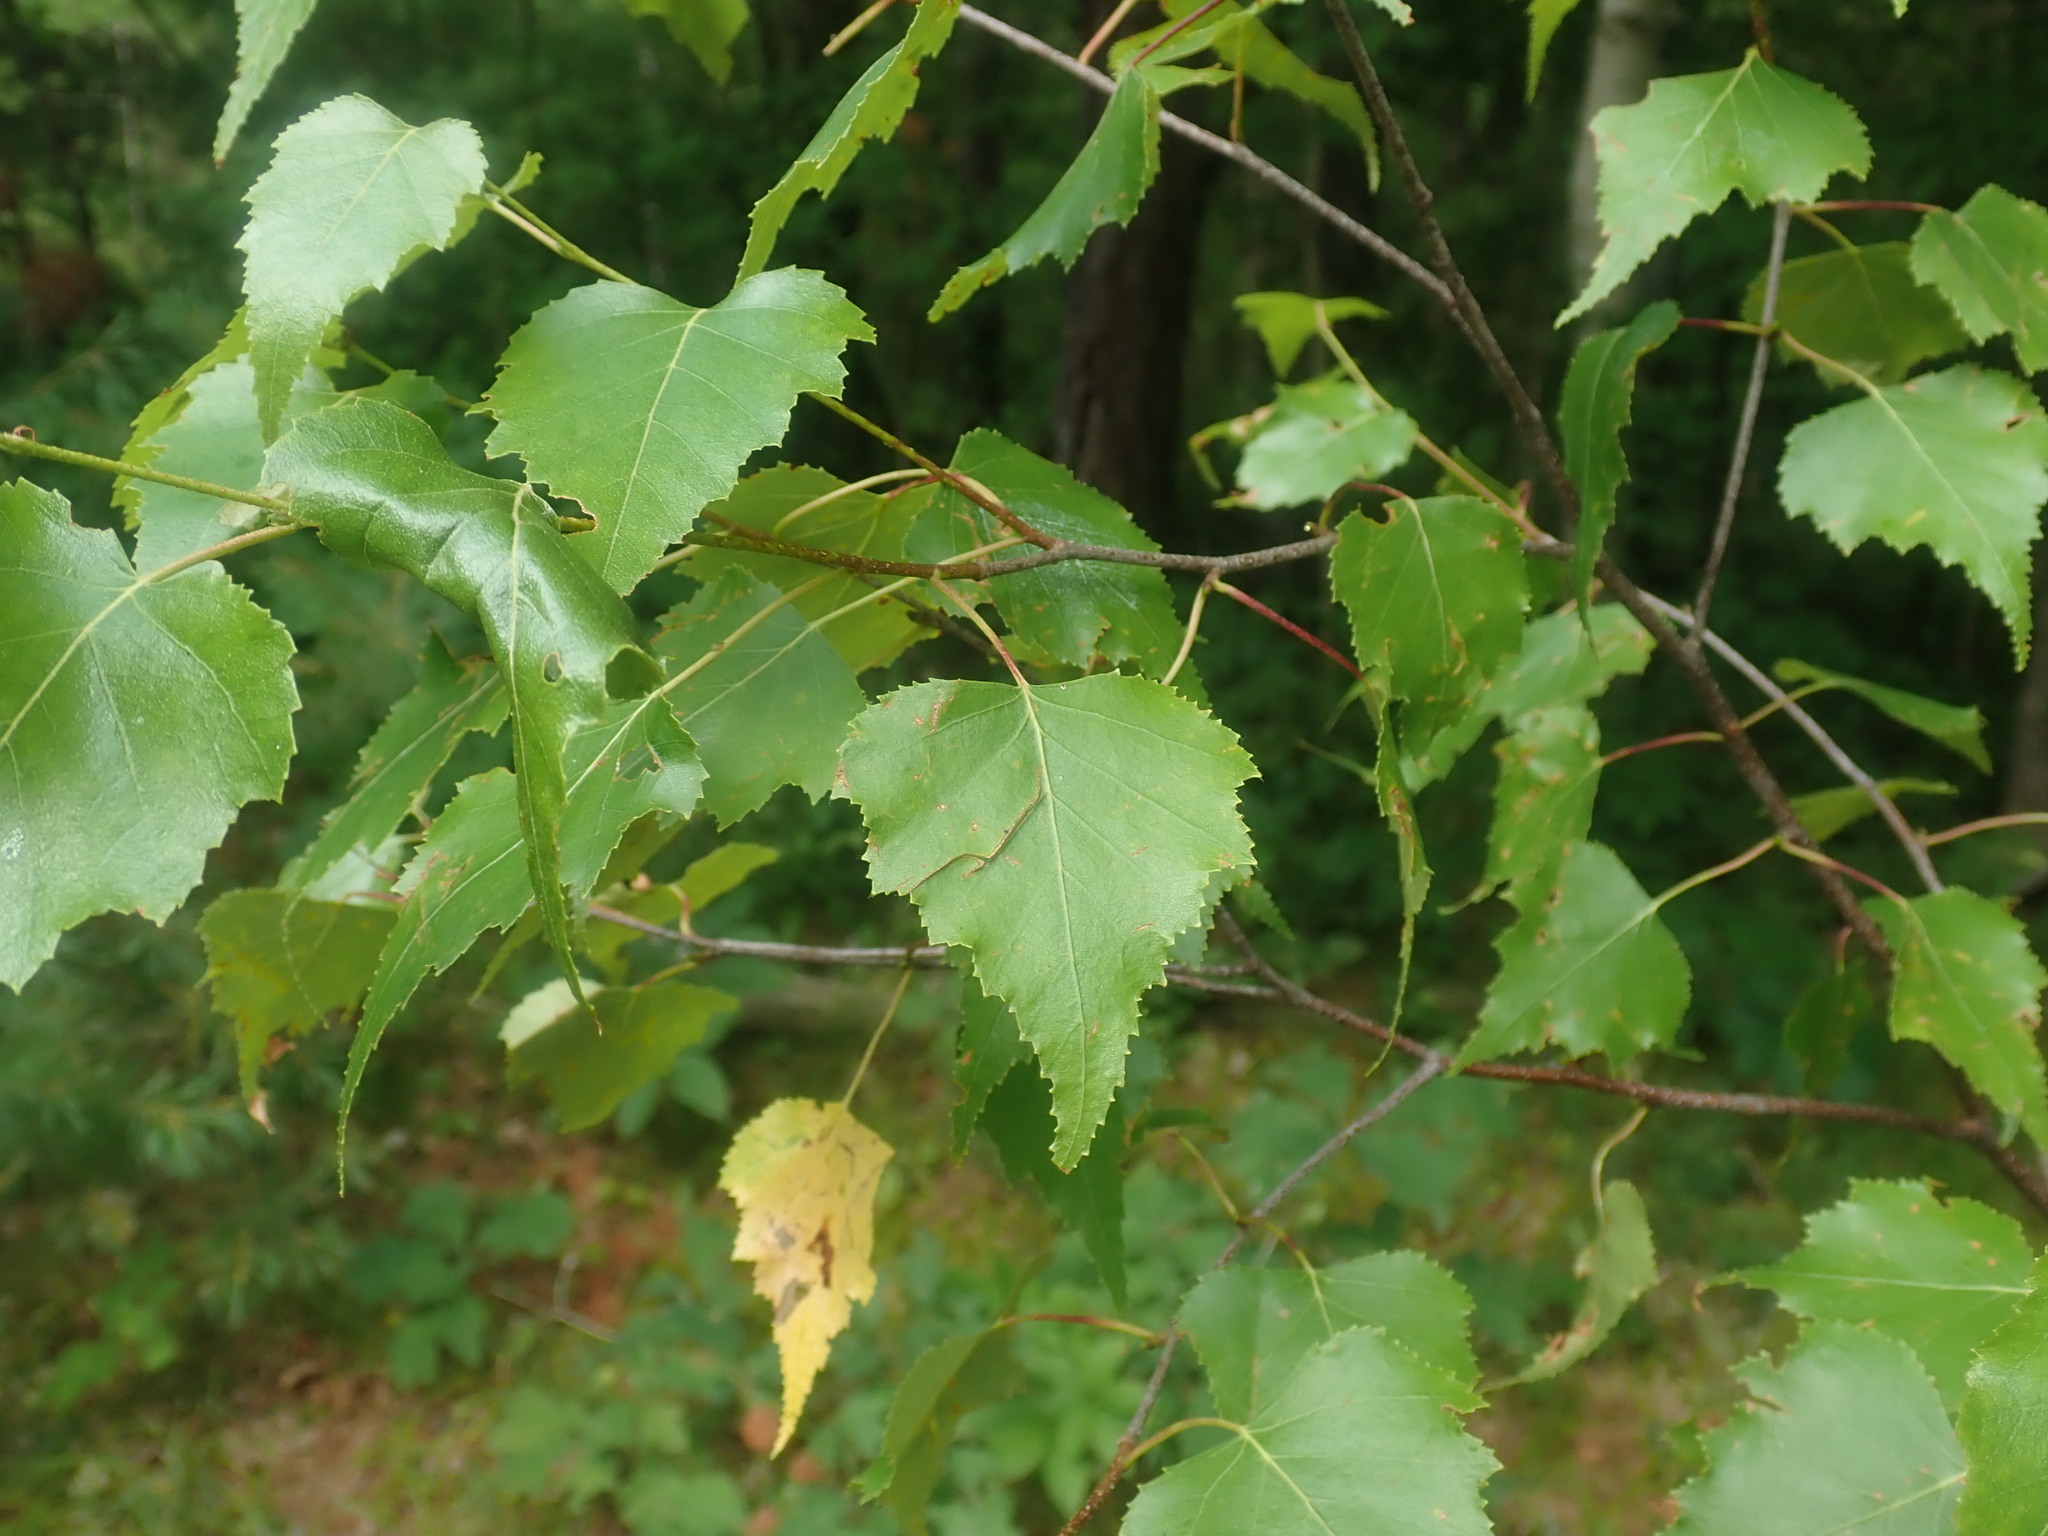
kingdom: Plantae
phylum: Tracheophyta
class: Magnoliopsida
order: Fagales
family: Betulaceae
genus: Betula
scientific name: Betula populifolia
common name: Fire birch
